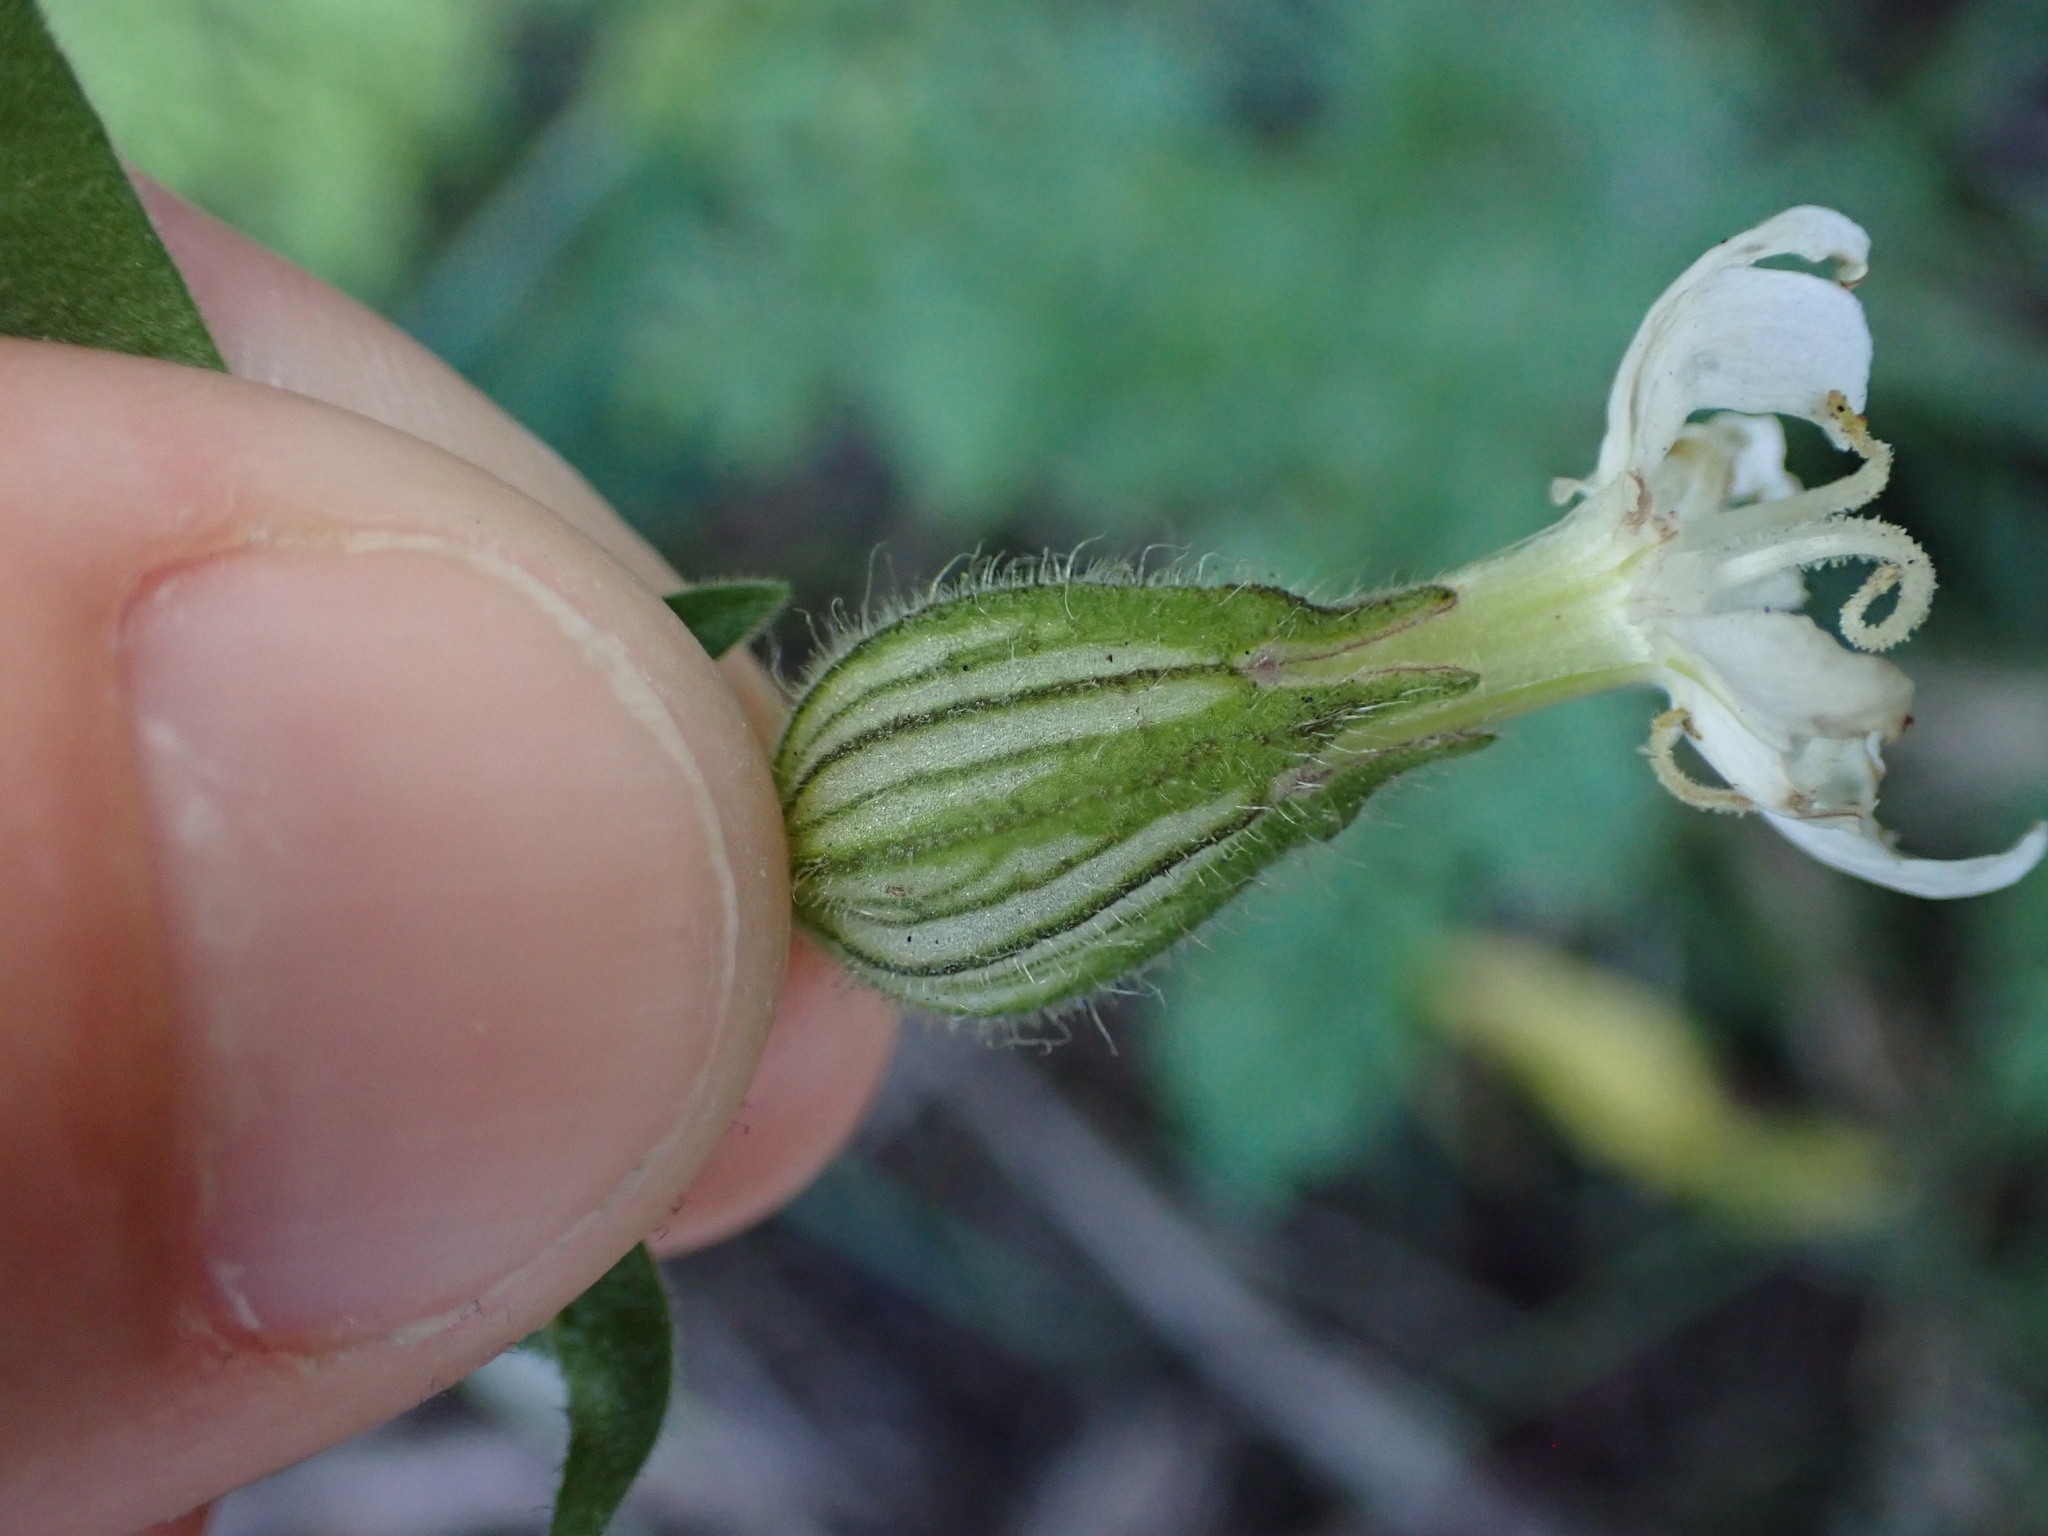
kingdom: Plantae
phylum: Tracheophyta
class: Magnoliopsida
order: Caryophyllales
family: Caryophyllaceae
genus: Silene
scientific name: Silene latifolia
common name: White campion
